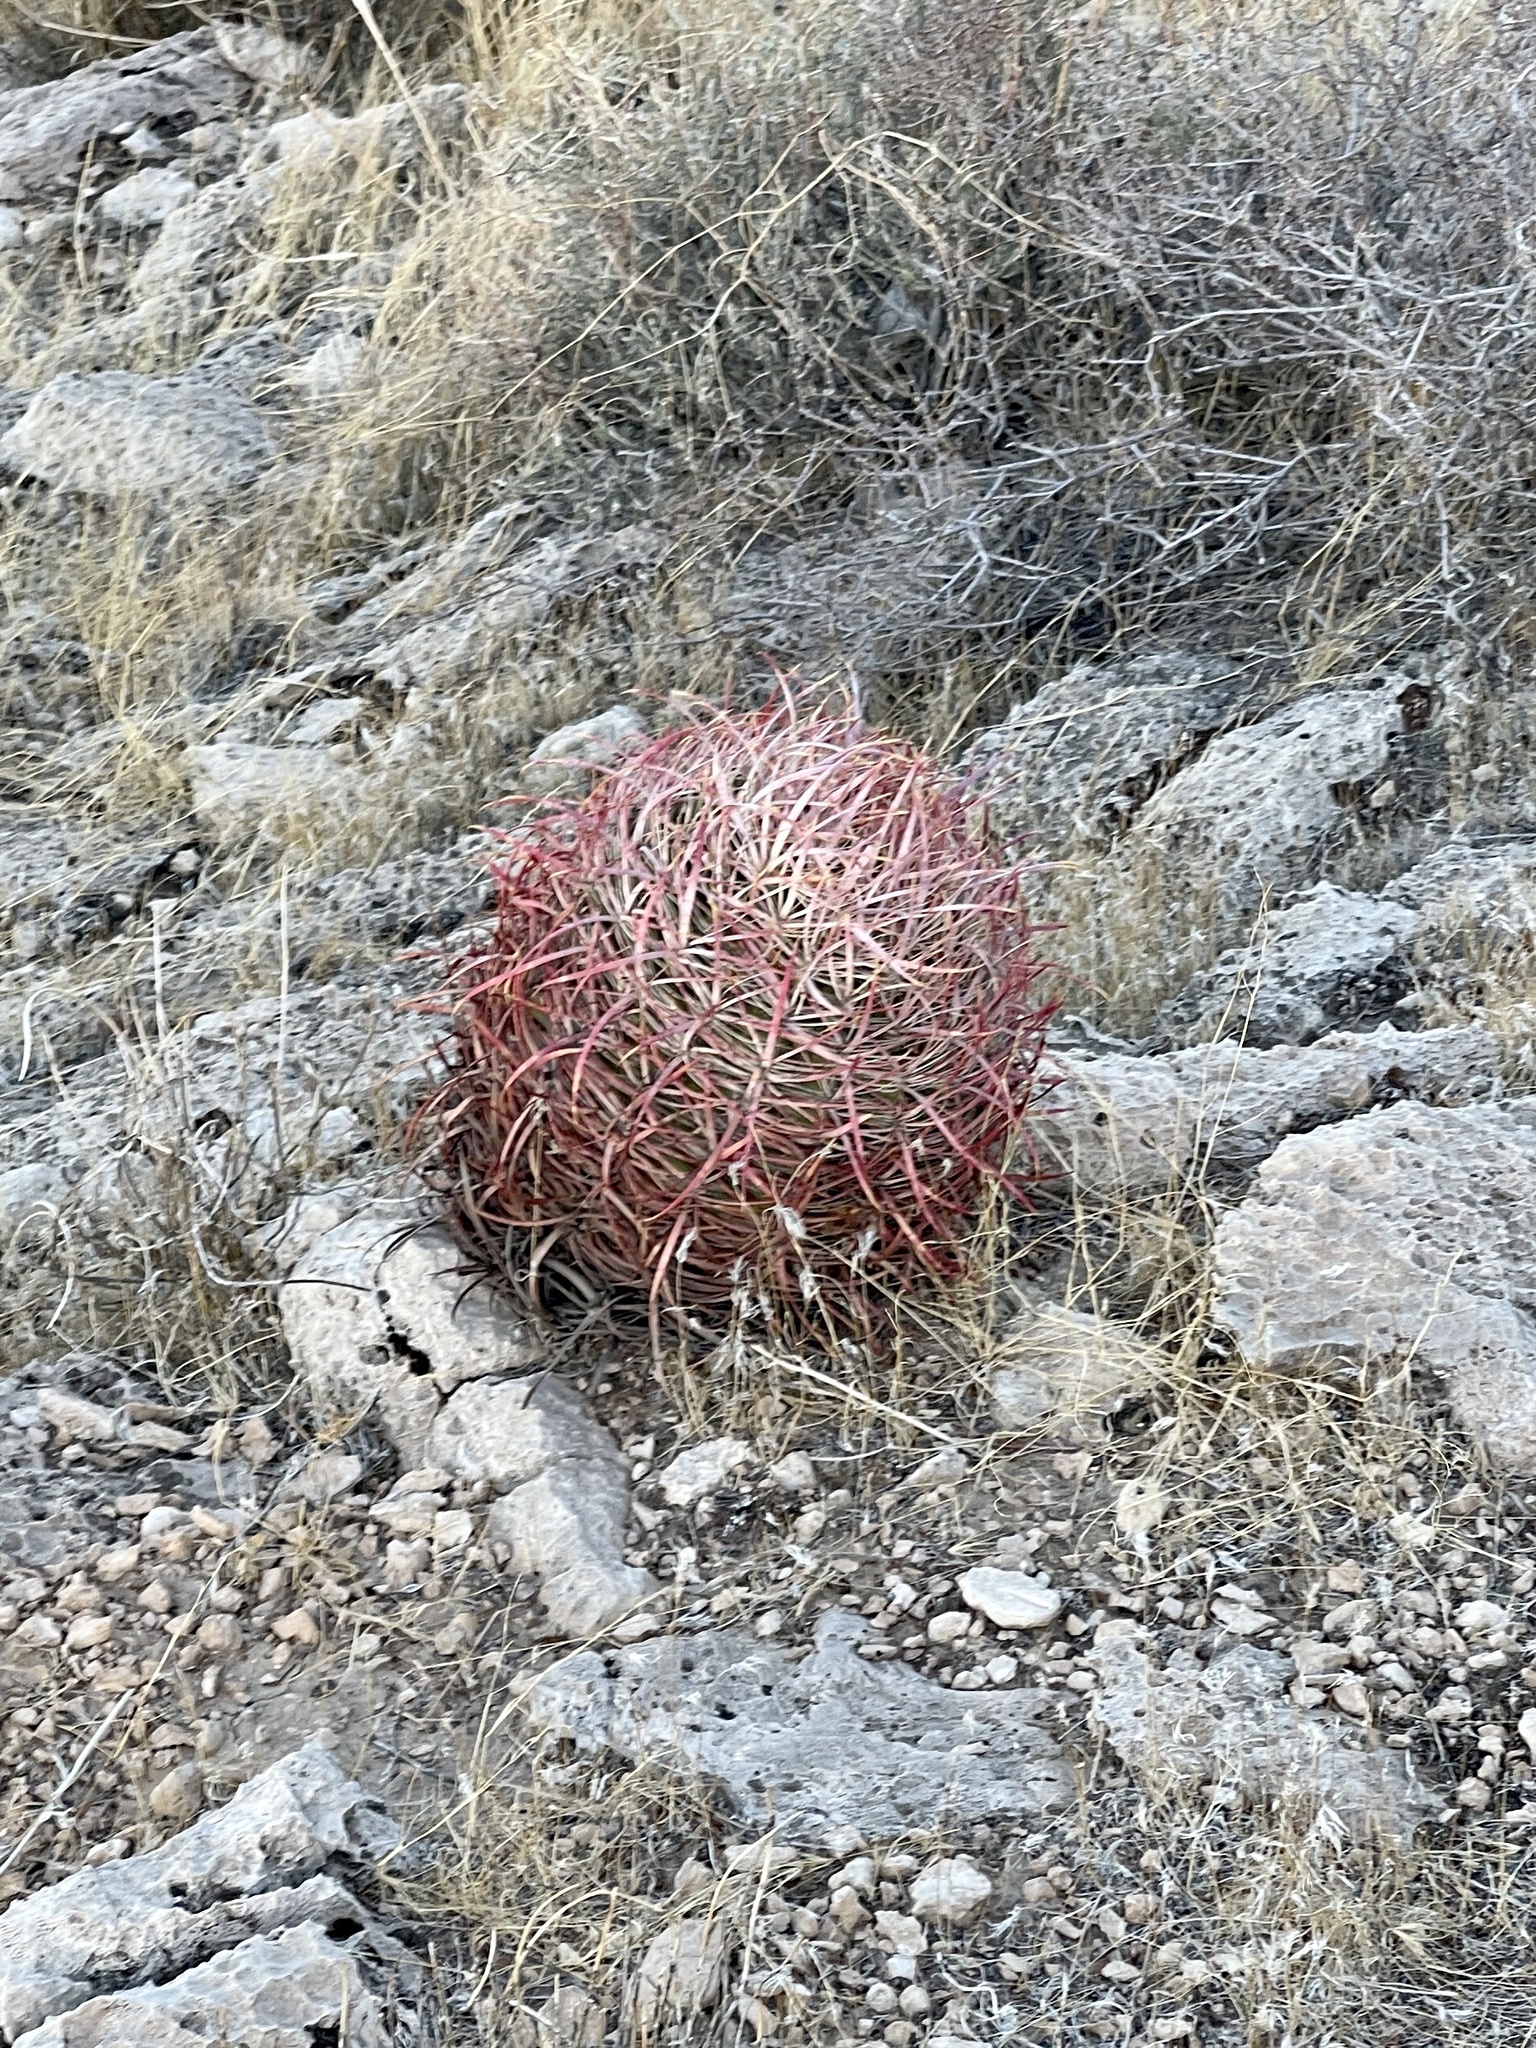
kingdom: Plantae
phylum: Tracheophyta
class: Magnoliopsida
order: Caryophyllales
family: Cactaceae
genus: Ferocactus
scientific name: Ferocactus cylindraceus
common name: California barrel cactus
